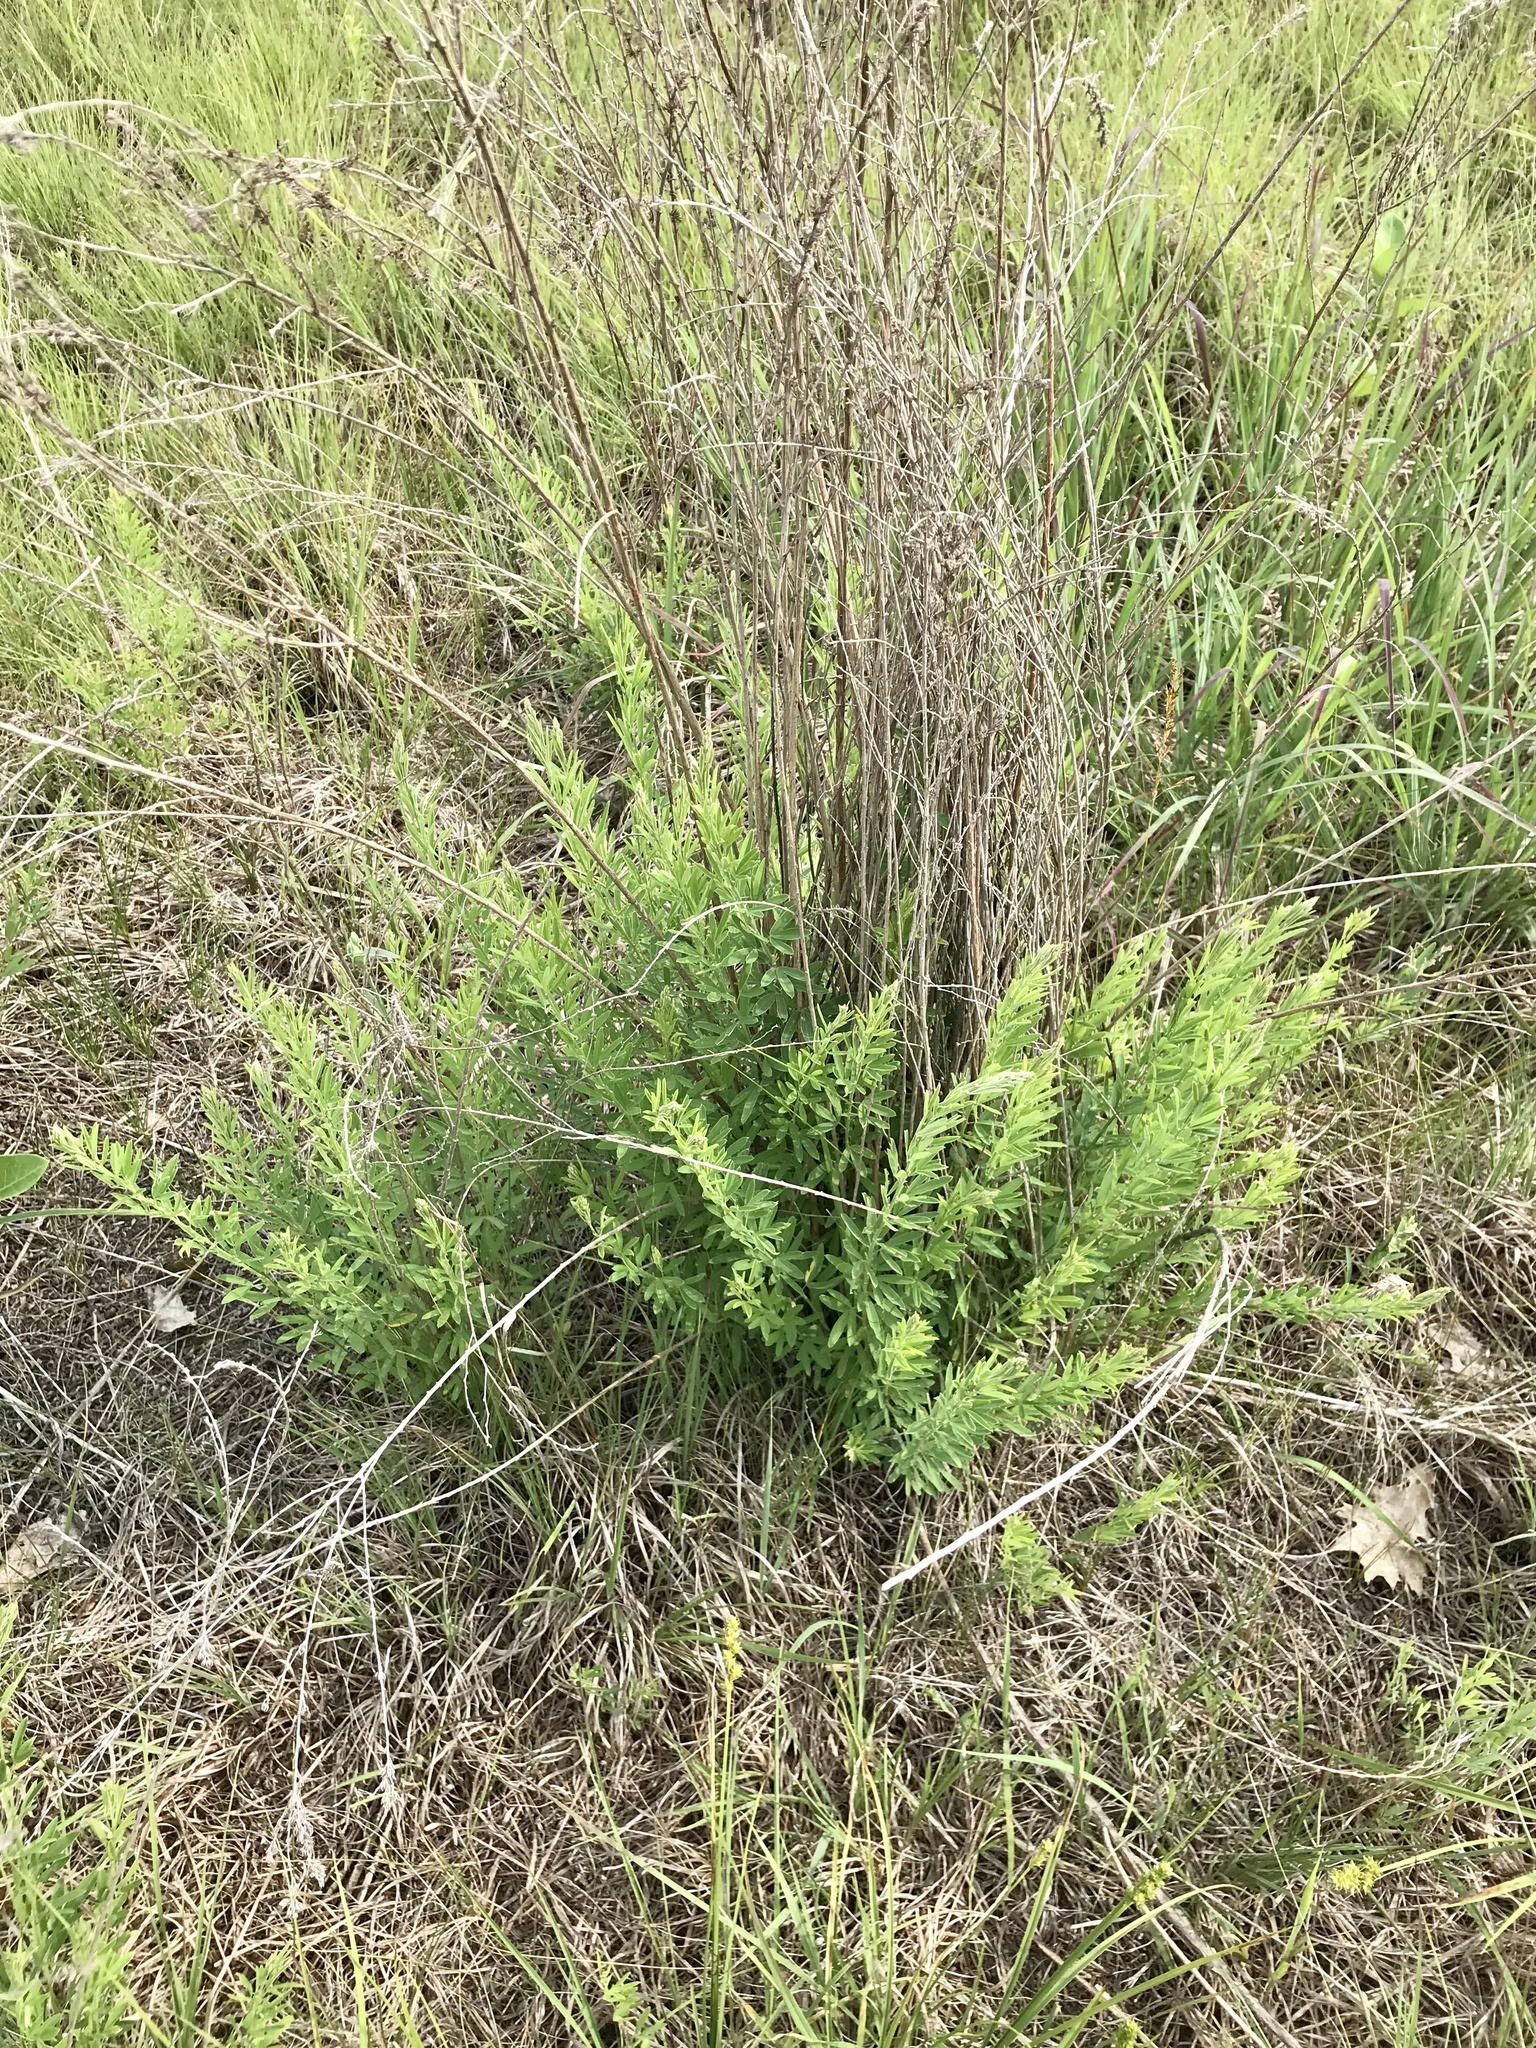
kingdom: Plantae
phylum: Tracheophyta
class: Magnoliopsida
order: Fabales
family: Fabaceae
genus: Lespedeza
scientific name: Lespedeza cuneata
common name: Chinese bush-clover
